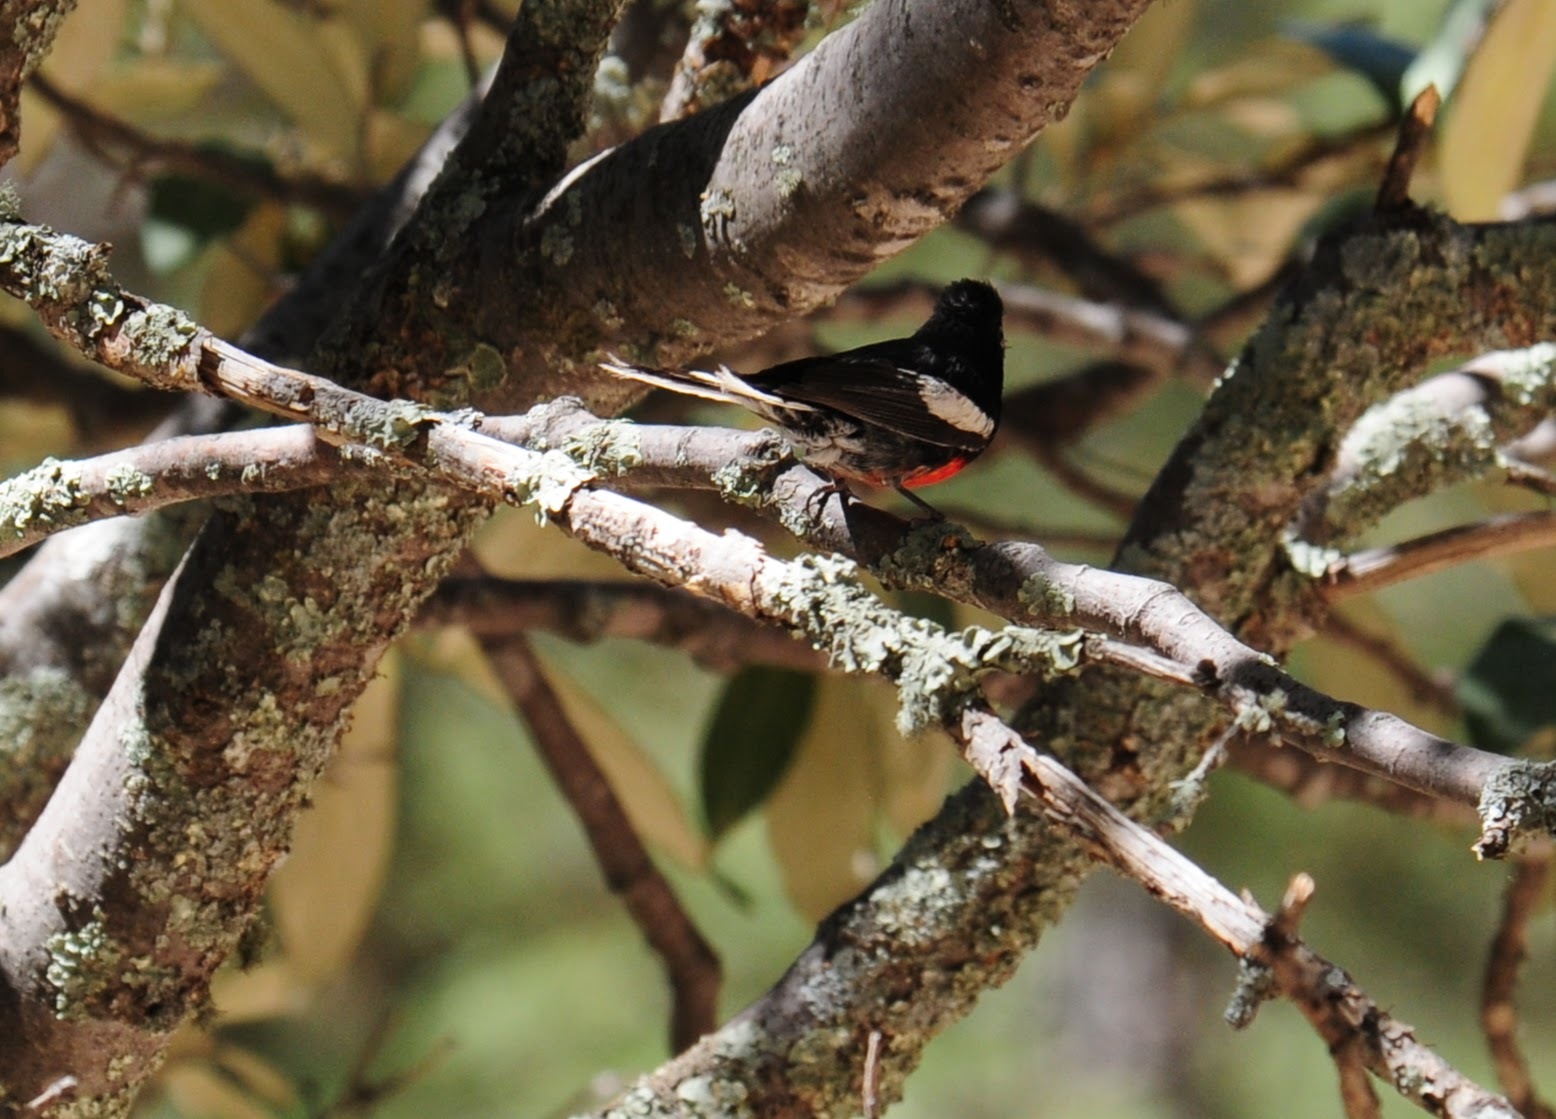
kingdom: Animalia
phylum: Chordata
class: Aves
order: Passeriformes
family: Parulidae
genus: Myioborus
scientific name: Myioborus pictus
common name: Painted whitestart
